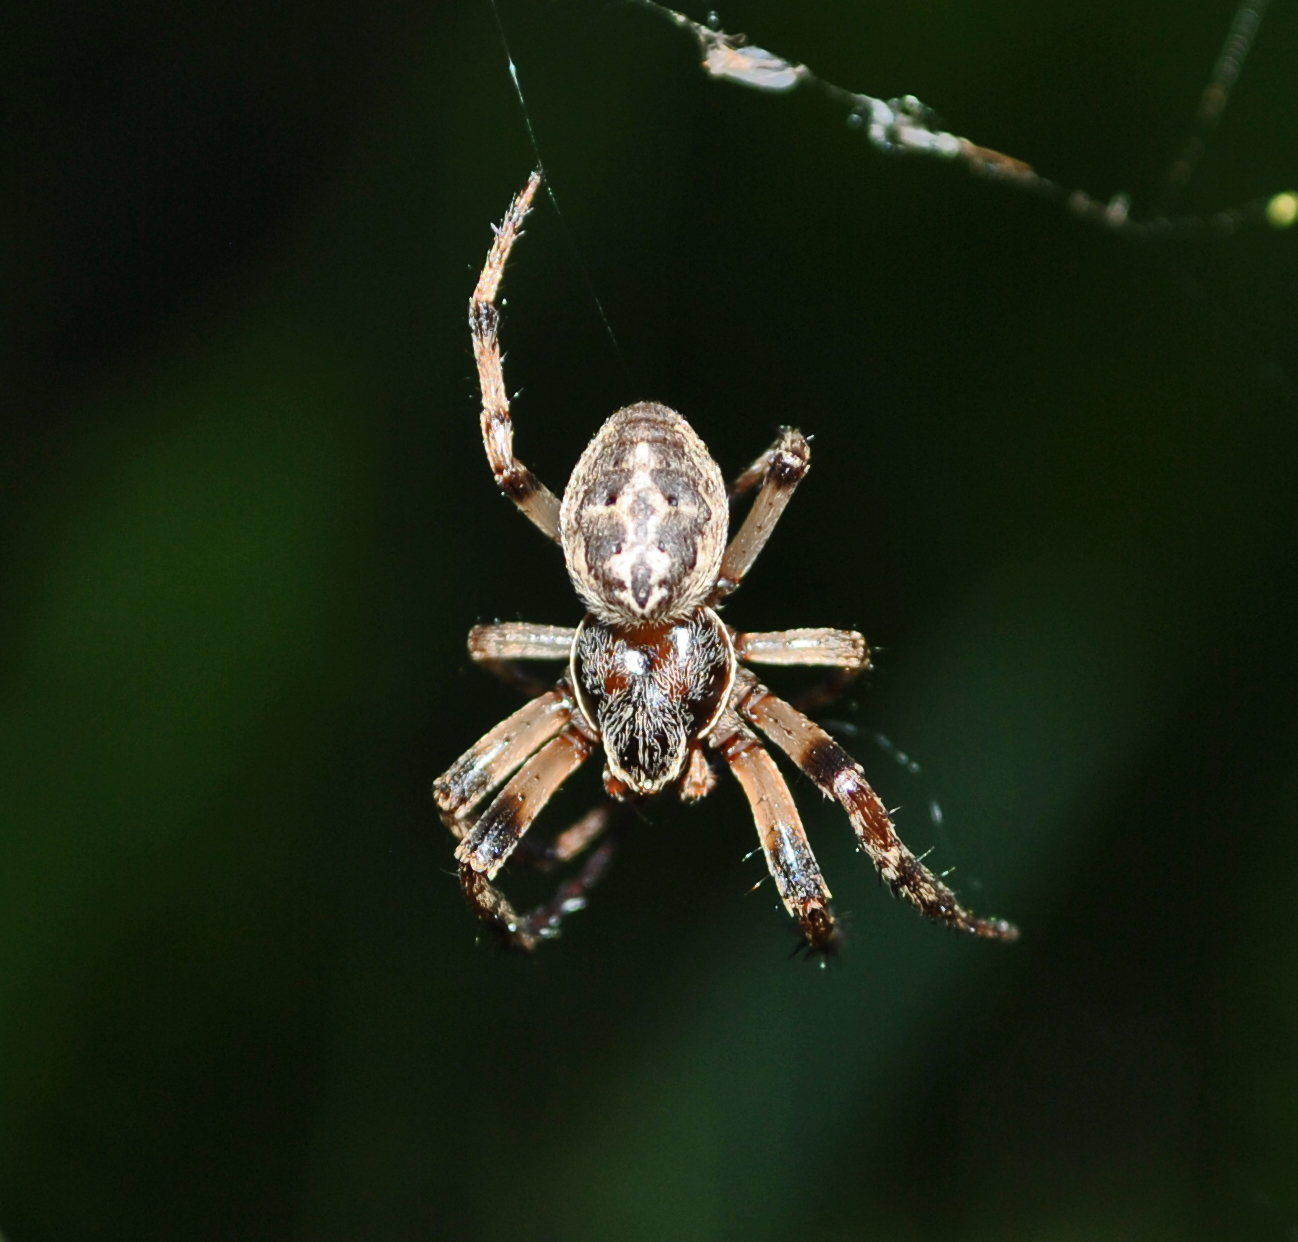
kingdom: Animalia
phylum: Arthropoda
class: Arachnida
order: Araneae
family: Araneidae
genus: Larinioides
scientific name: Larinioides cornutus
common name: Furrow orbweaver
